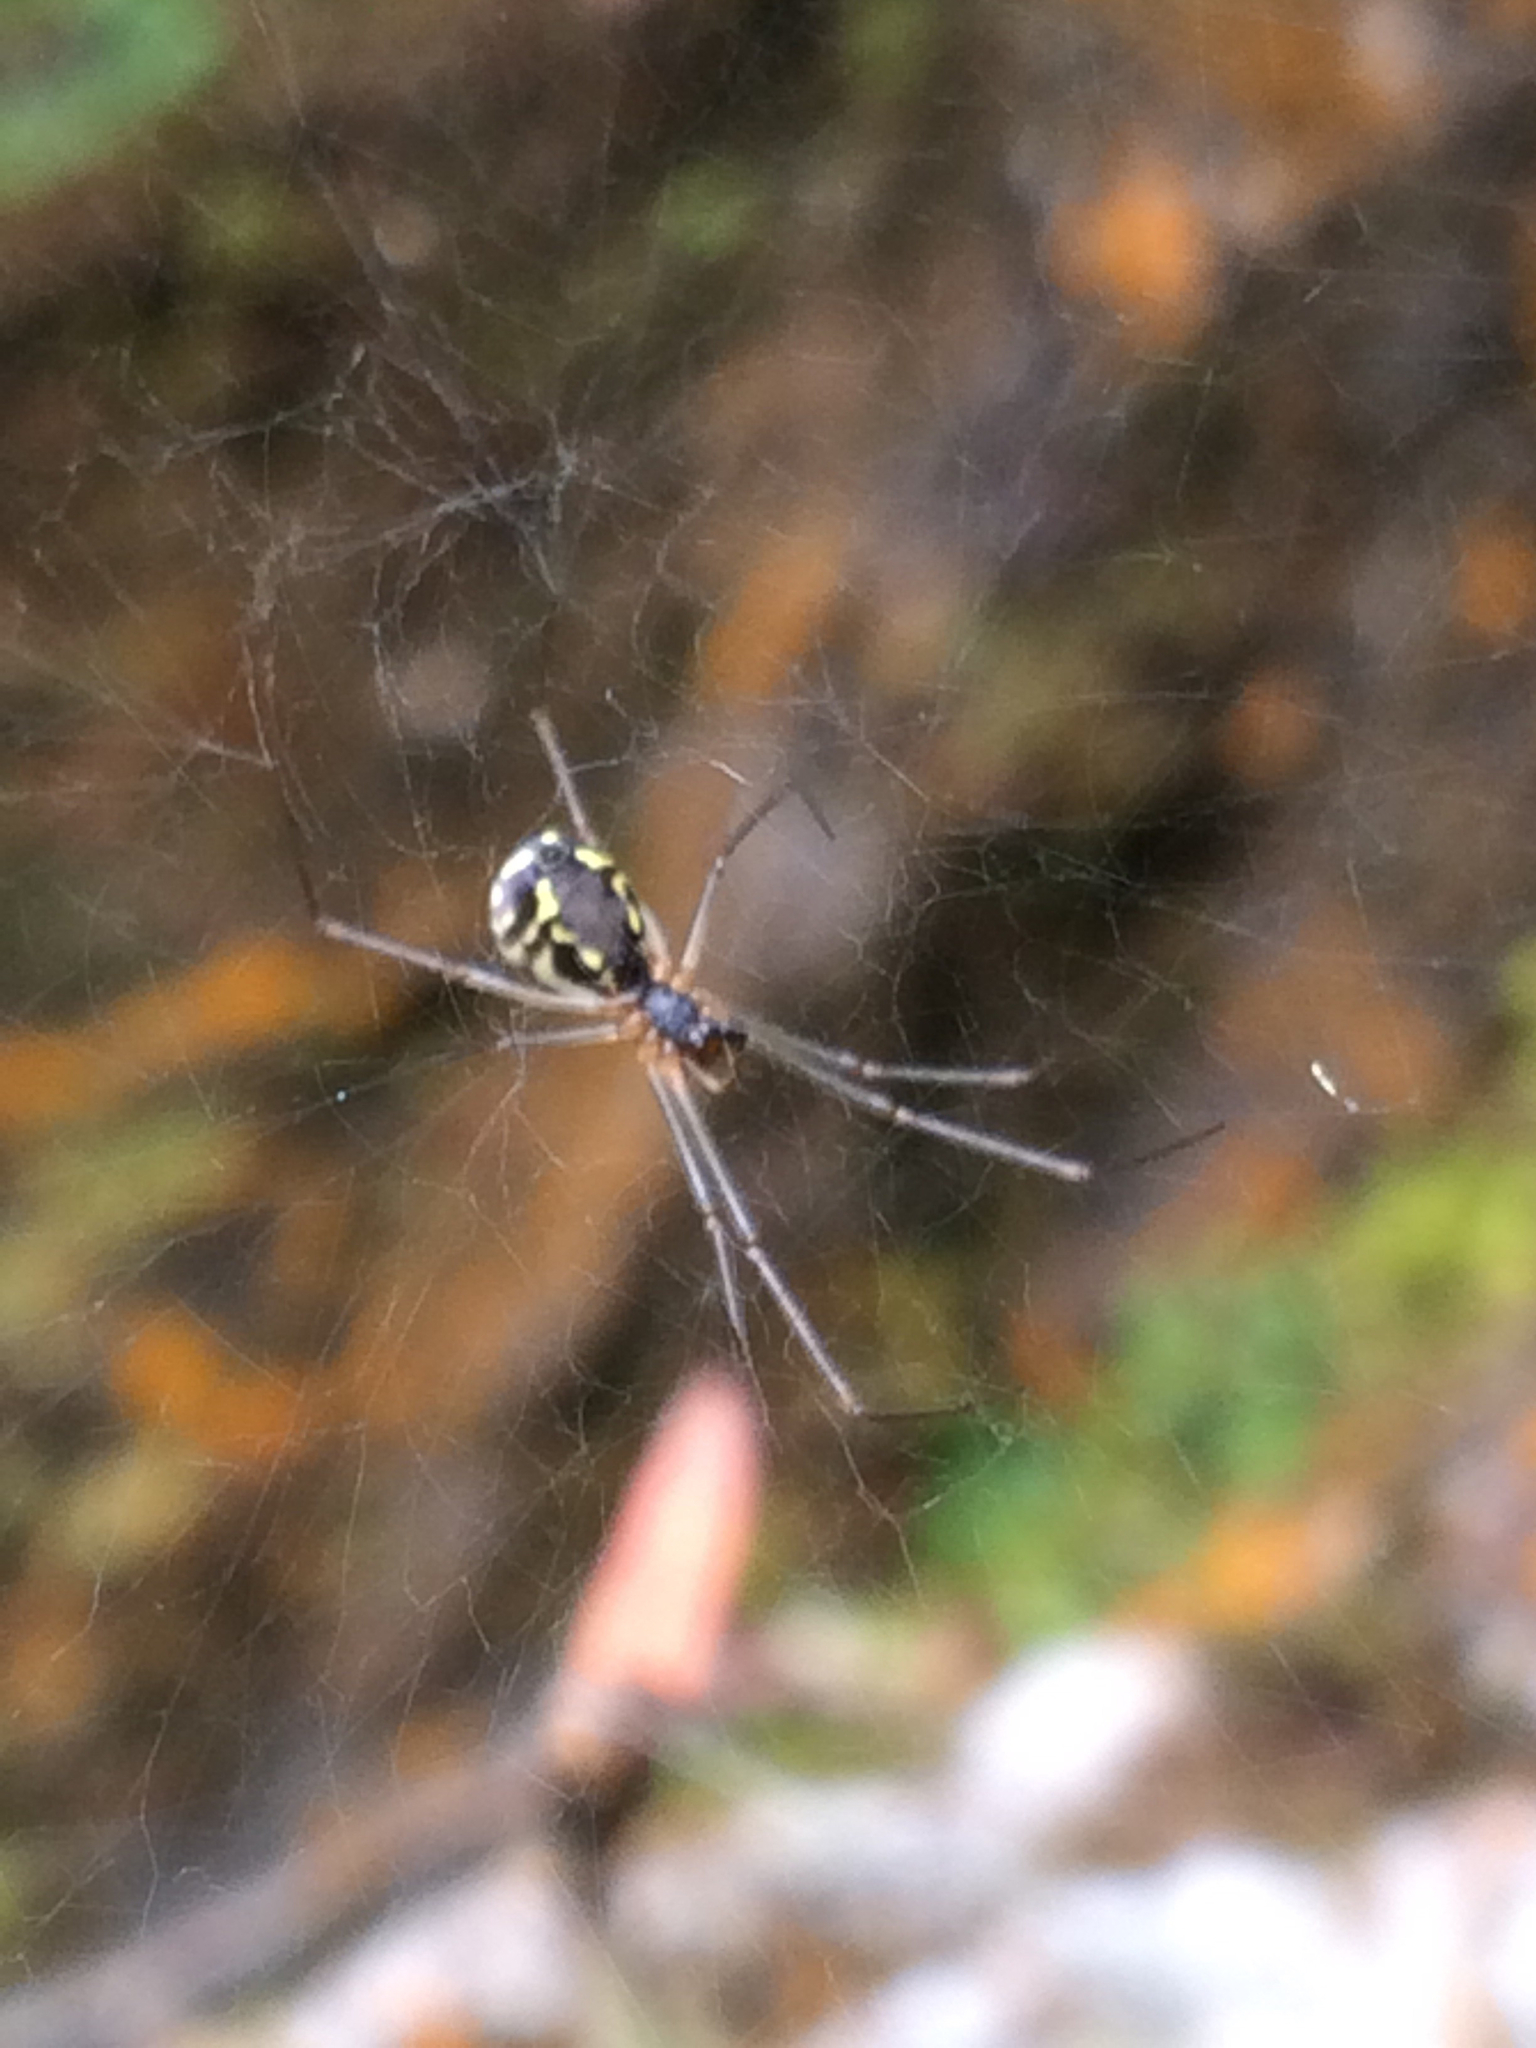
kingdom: Animalia
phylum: Arthropoda
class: Arachnida
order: Araneae
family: Linyphiidae
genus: Neriene
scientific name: Neriene radiata
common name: Filmy dome spider
